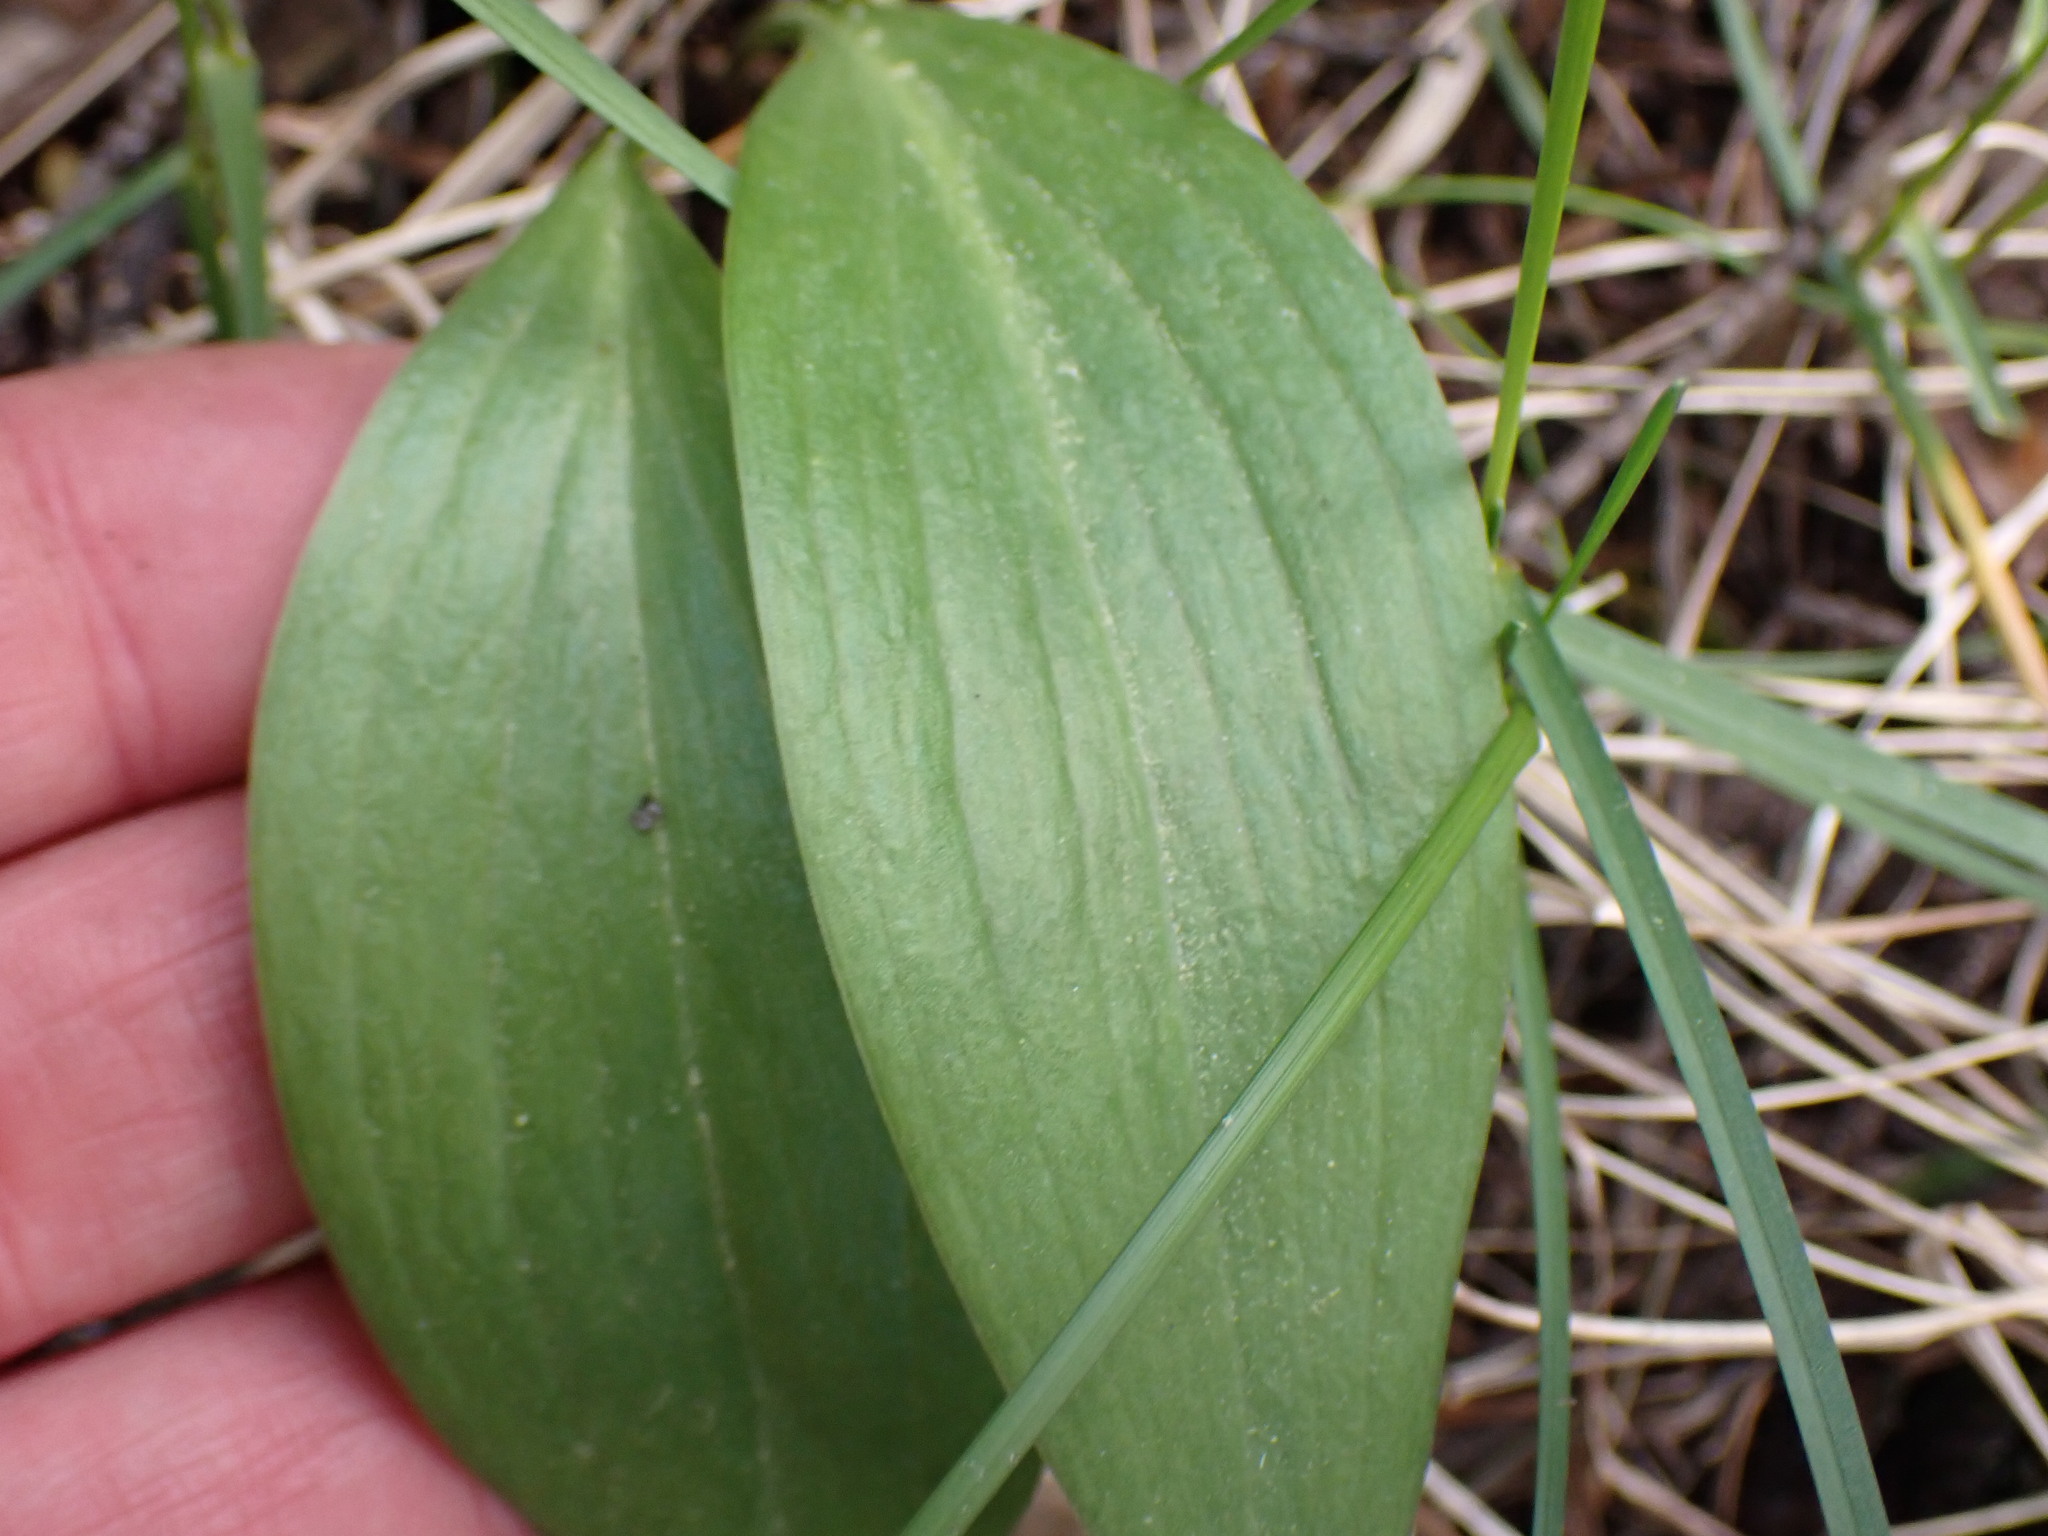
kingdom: Plantae
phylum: Tracheophyta
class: Liliopsida
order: Liliales
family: Liliaceae
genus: Fritillaria
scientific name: Fritillaria affinis
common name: Ojai fritillary
